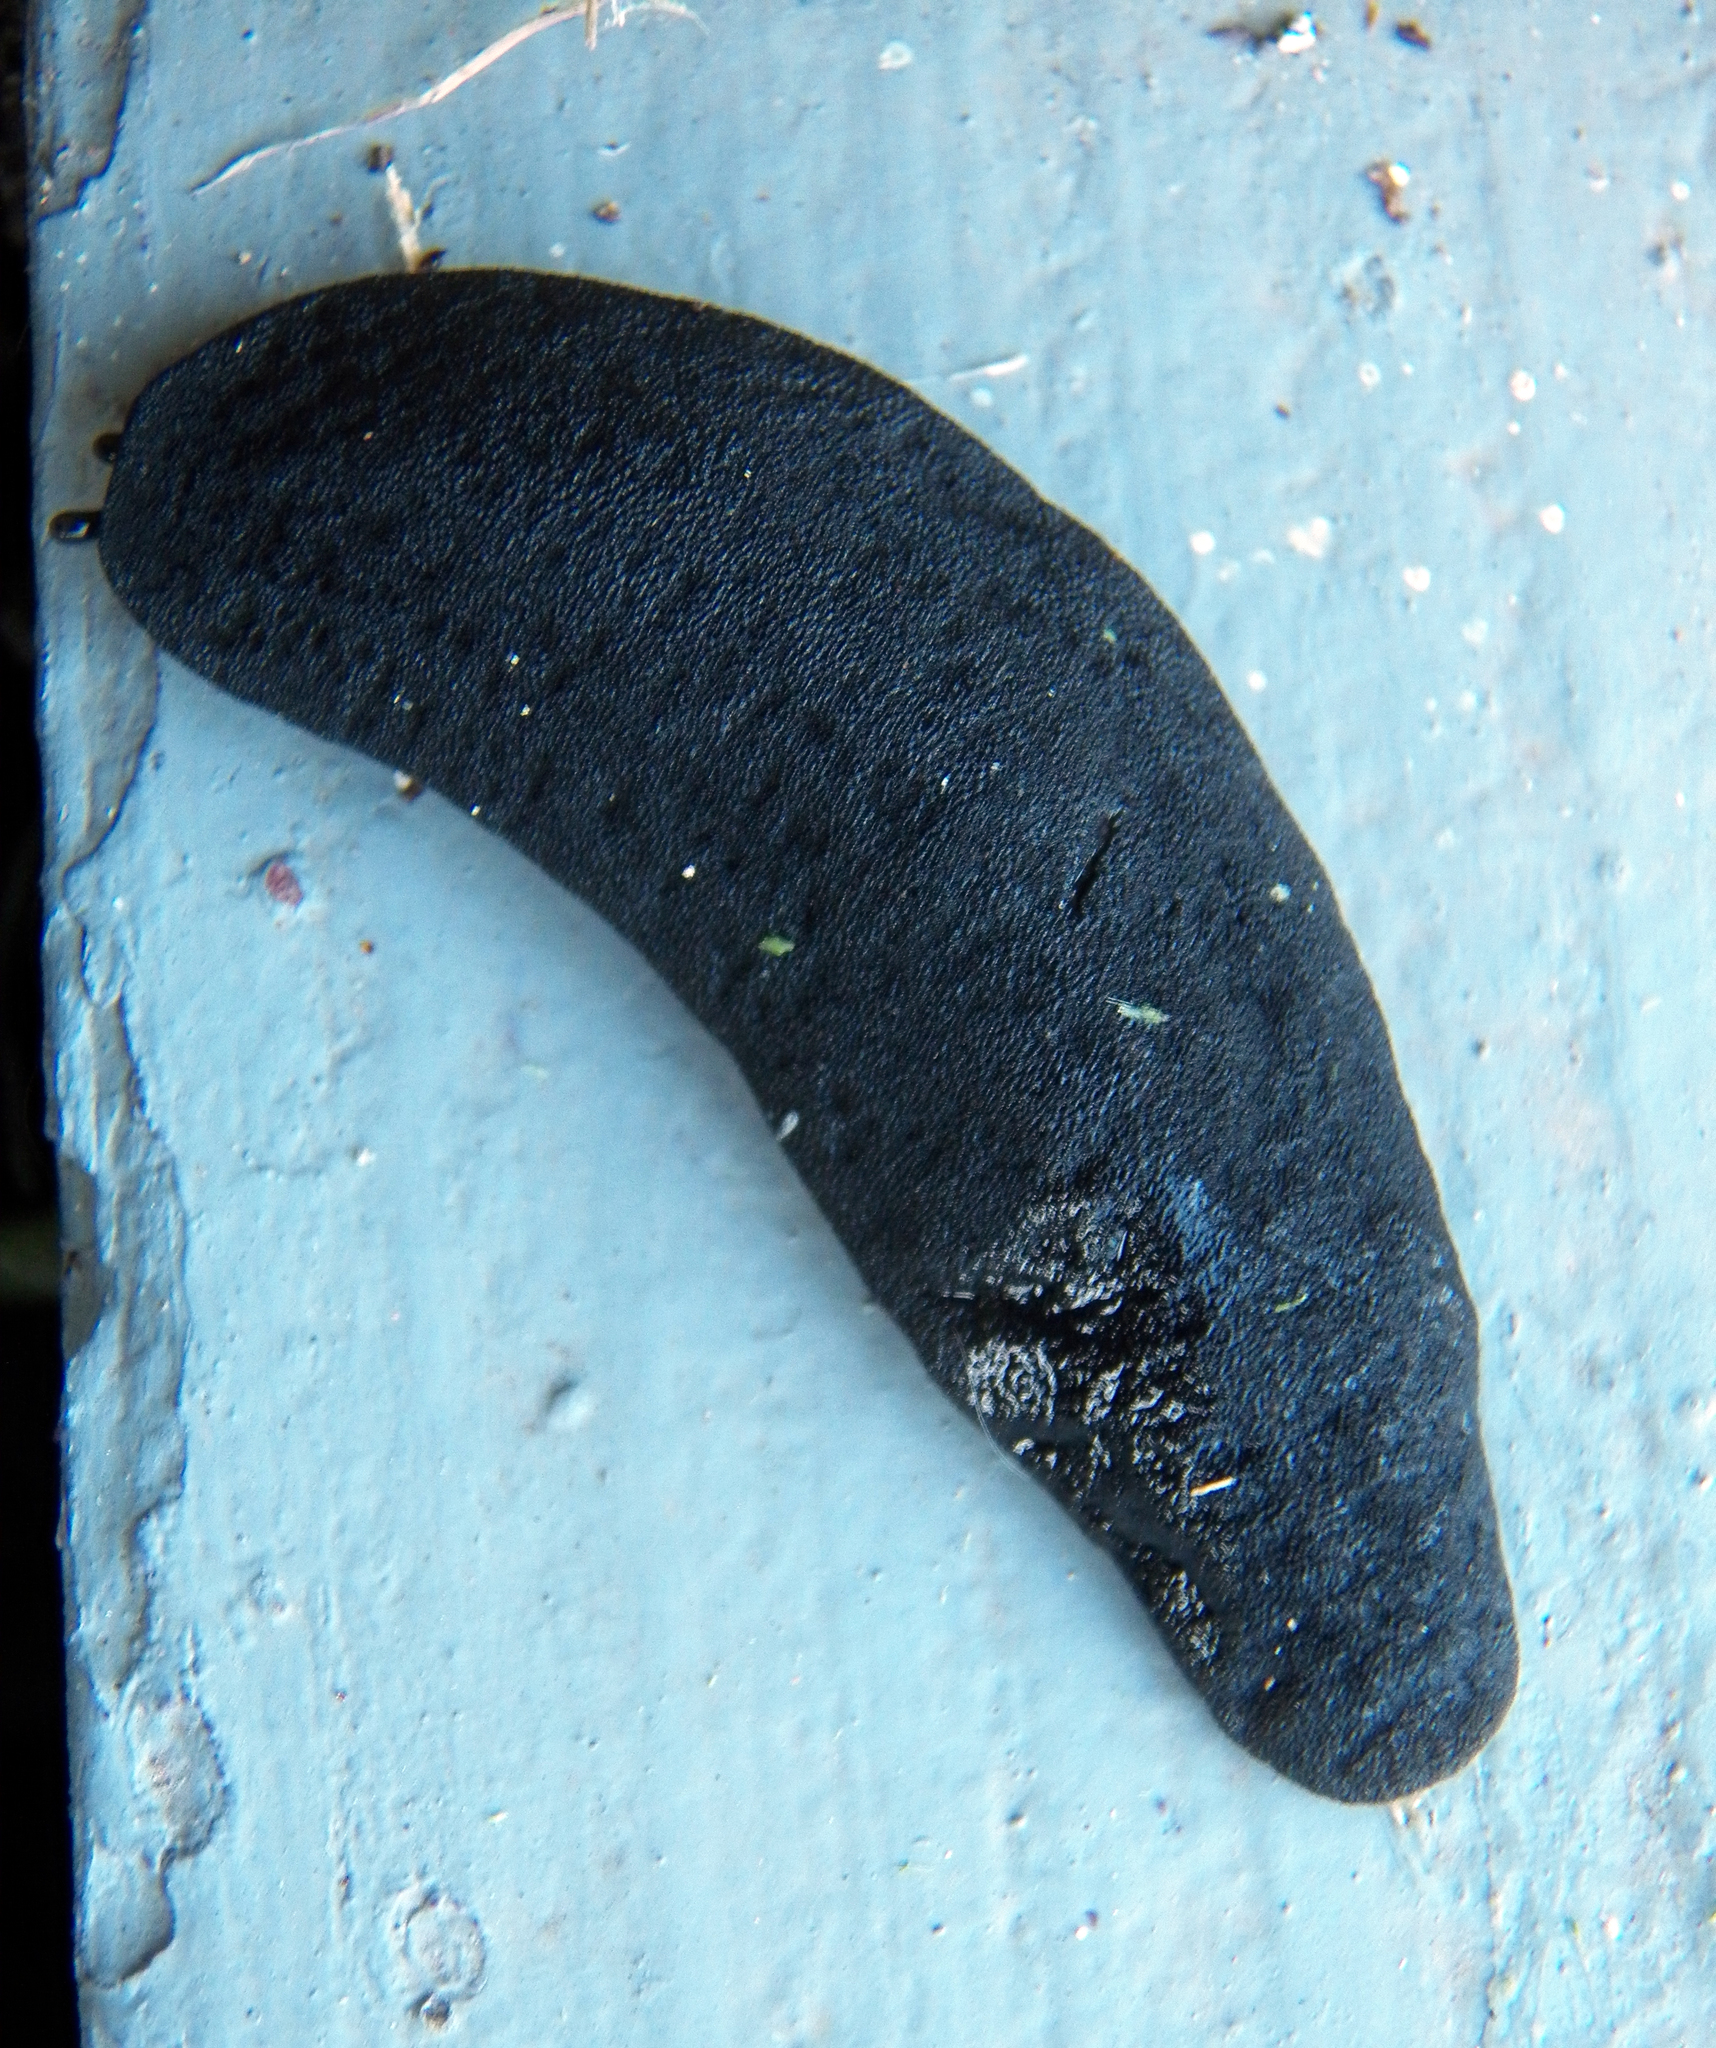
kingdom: Animalia
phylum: Mollusca
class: Gastropoda
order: Systellommatophora
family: Veronicellidae
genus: Belocaulus
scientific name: Belocaulus angustipes
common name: Black velvet leatherleaf slug
